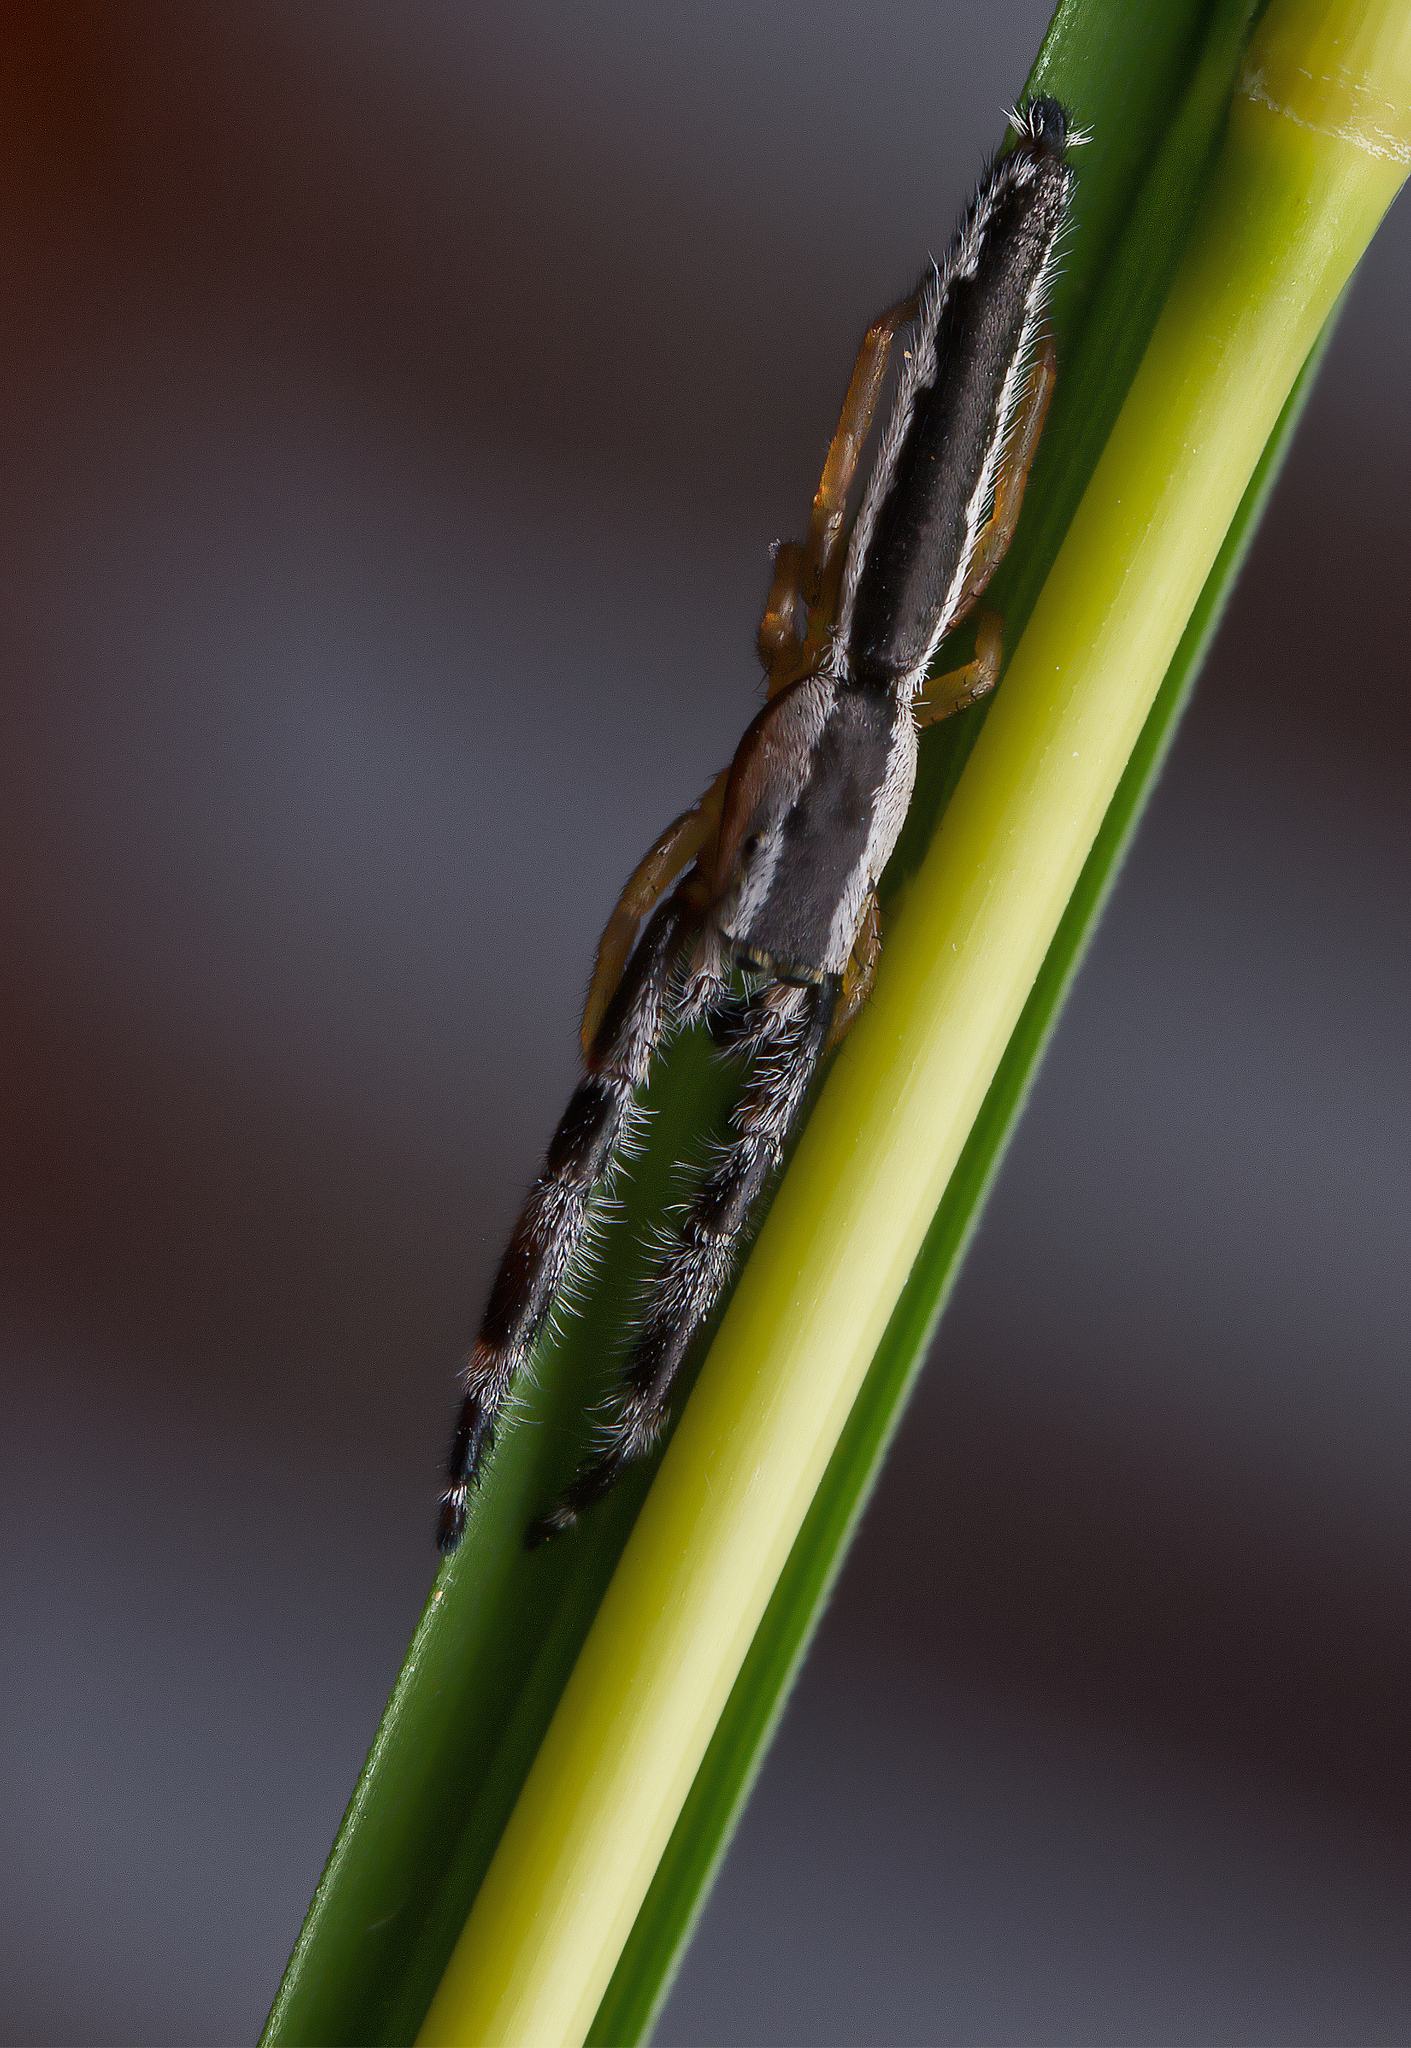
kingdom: Animalia
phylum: Arthropoda
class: Arachnida
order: Araneae
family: Salticidae
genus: Marpissa
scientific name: Marpissa pikei
